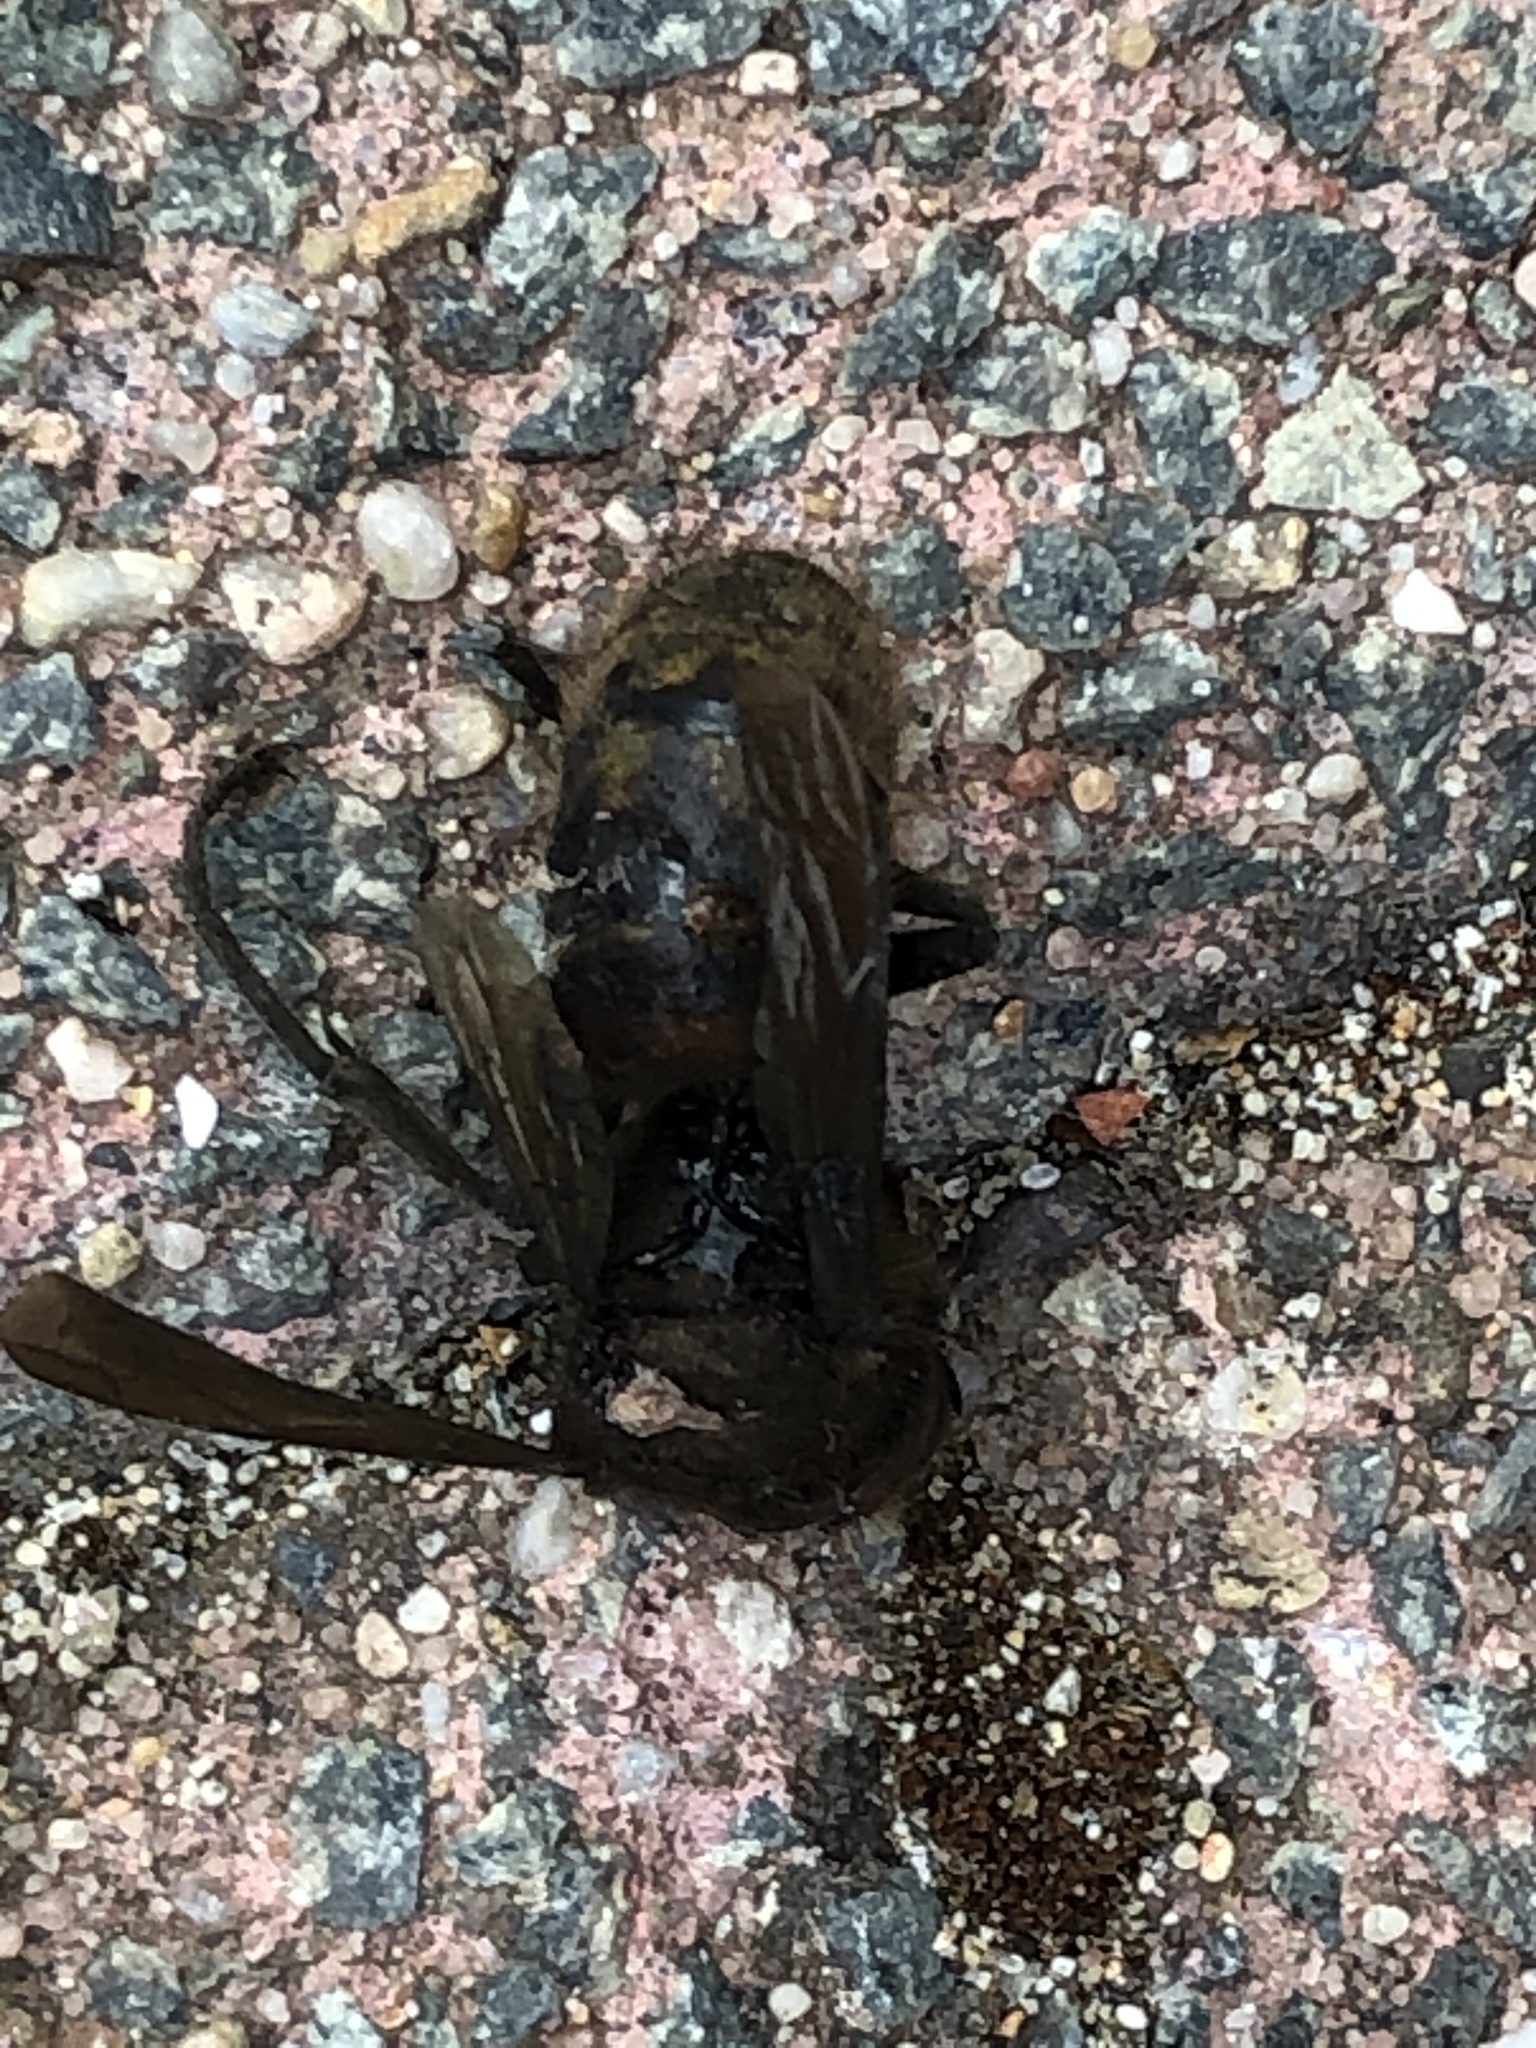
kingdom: Animalia
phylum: Arthropoda
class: Insecta
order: Hymenoptera
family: Vespidae
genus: Vespa
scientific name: Vespa crabro
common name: Hornet
